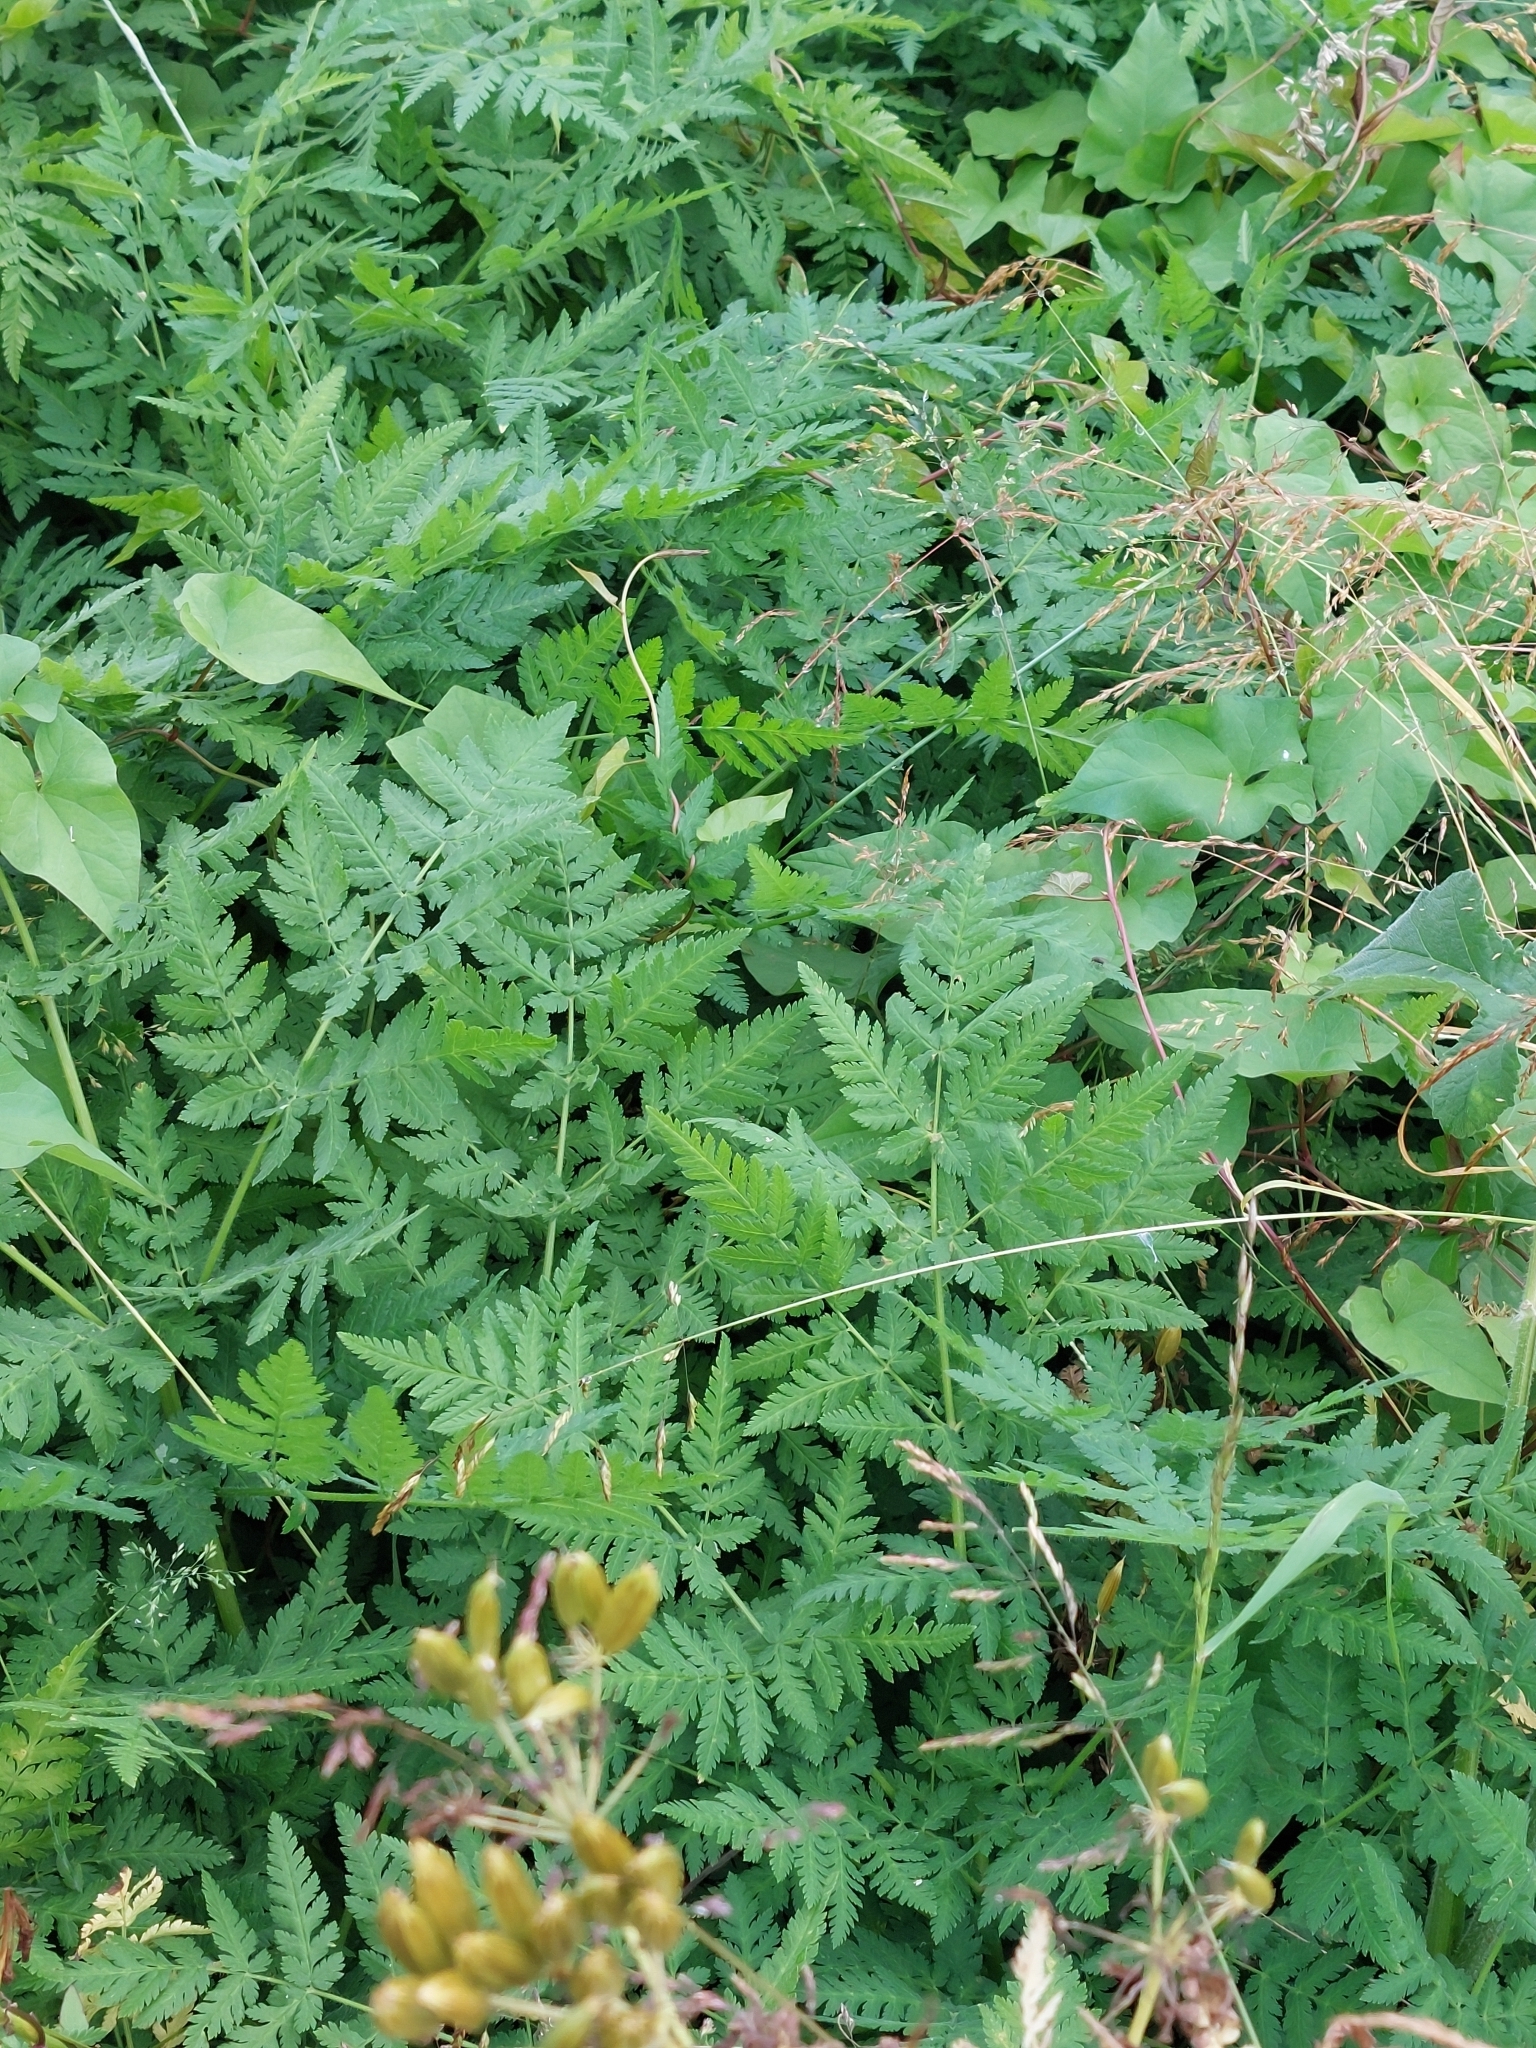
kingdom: Plantae
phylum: Tracheophyta
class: Magnoliopsida
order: Apiales
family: Apiaceae
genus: Myrrhis
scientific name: Myrrhis odorata
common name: Sweet cicely
